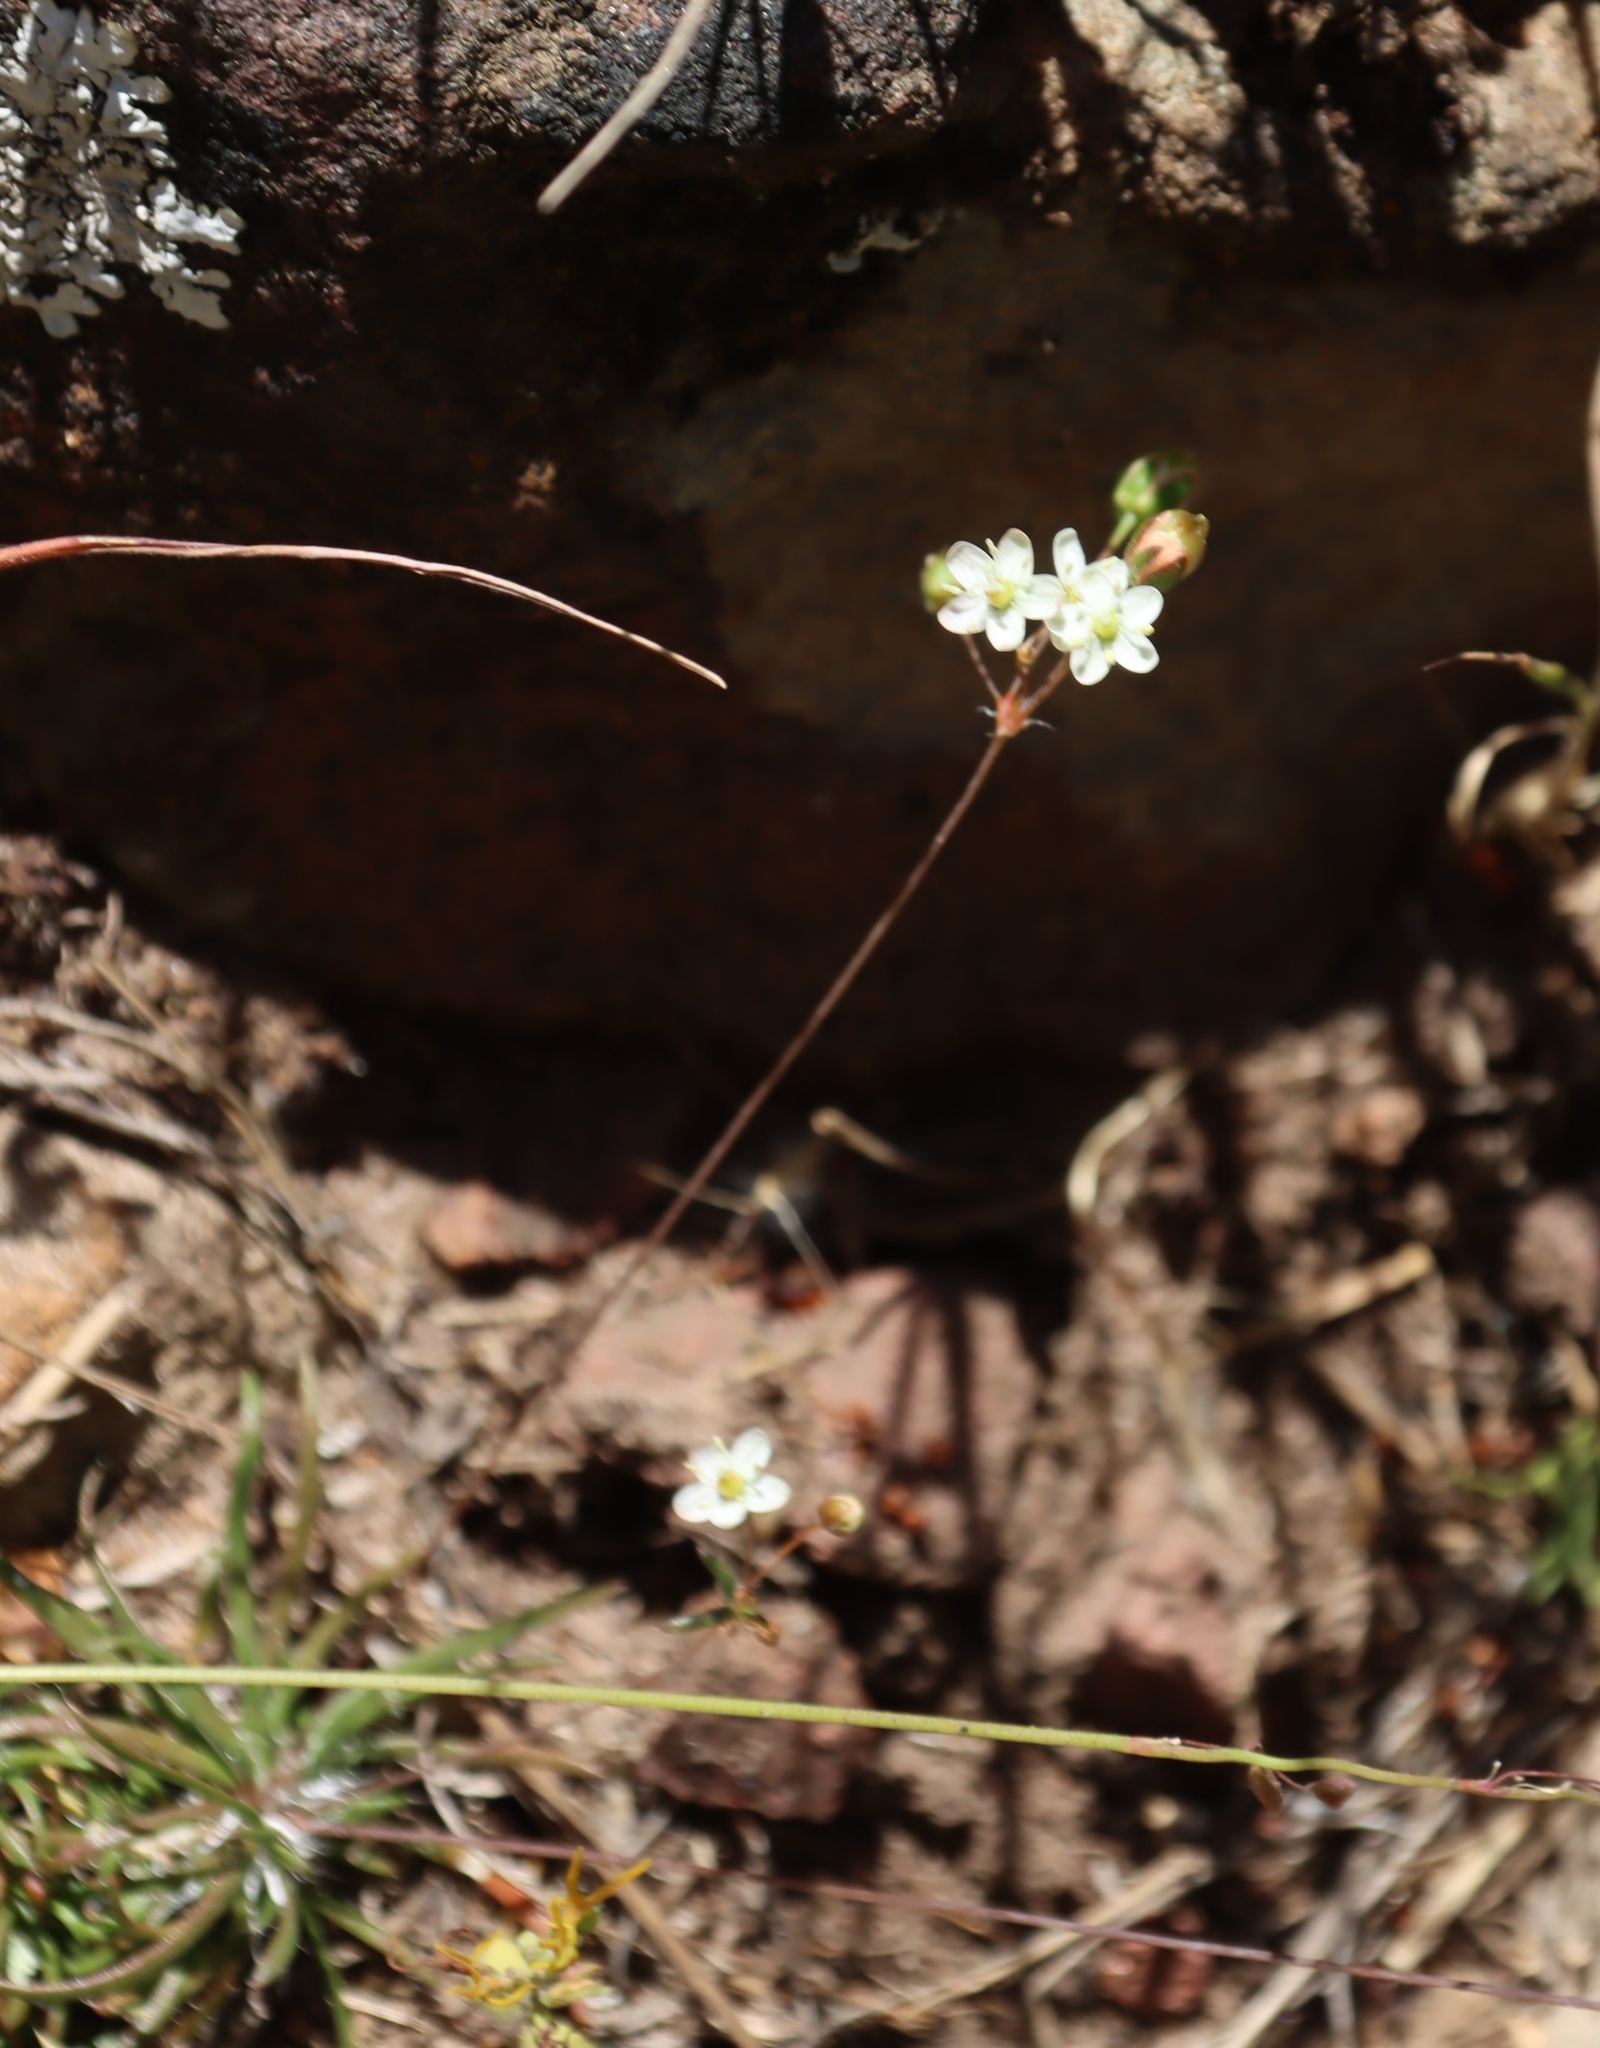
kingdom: Plantae
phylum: Tracheophyta
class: Magnoliopsida
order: Caryophyllales
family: Molluginaceae
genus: Pharnaceum
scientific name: Pharnaceum elongatum
